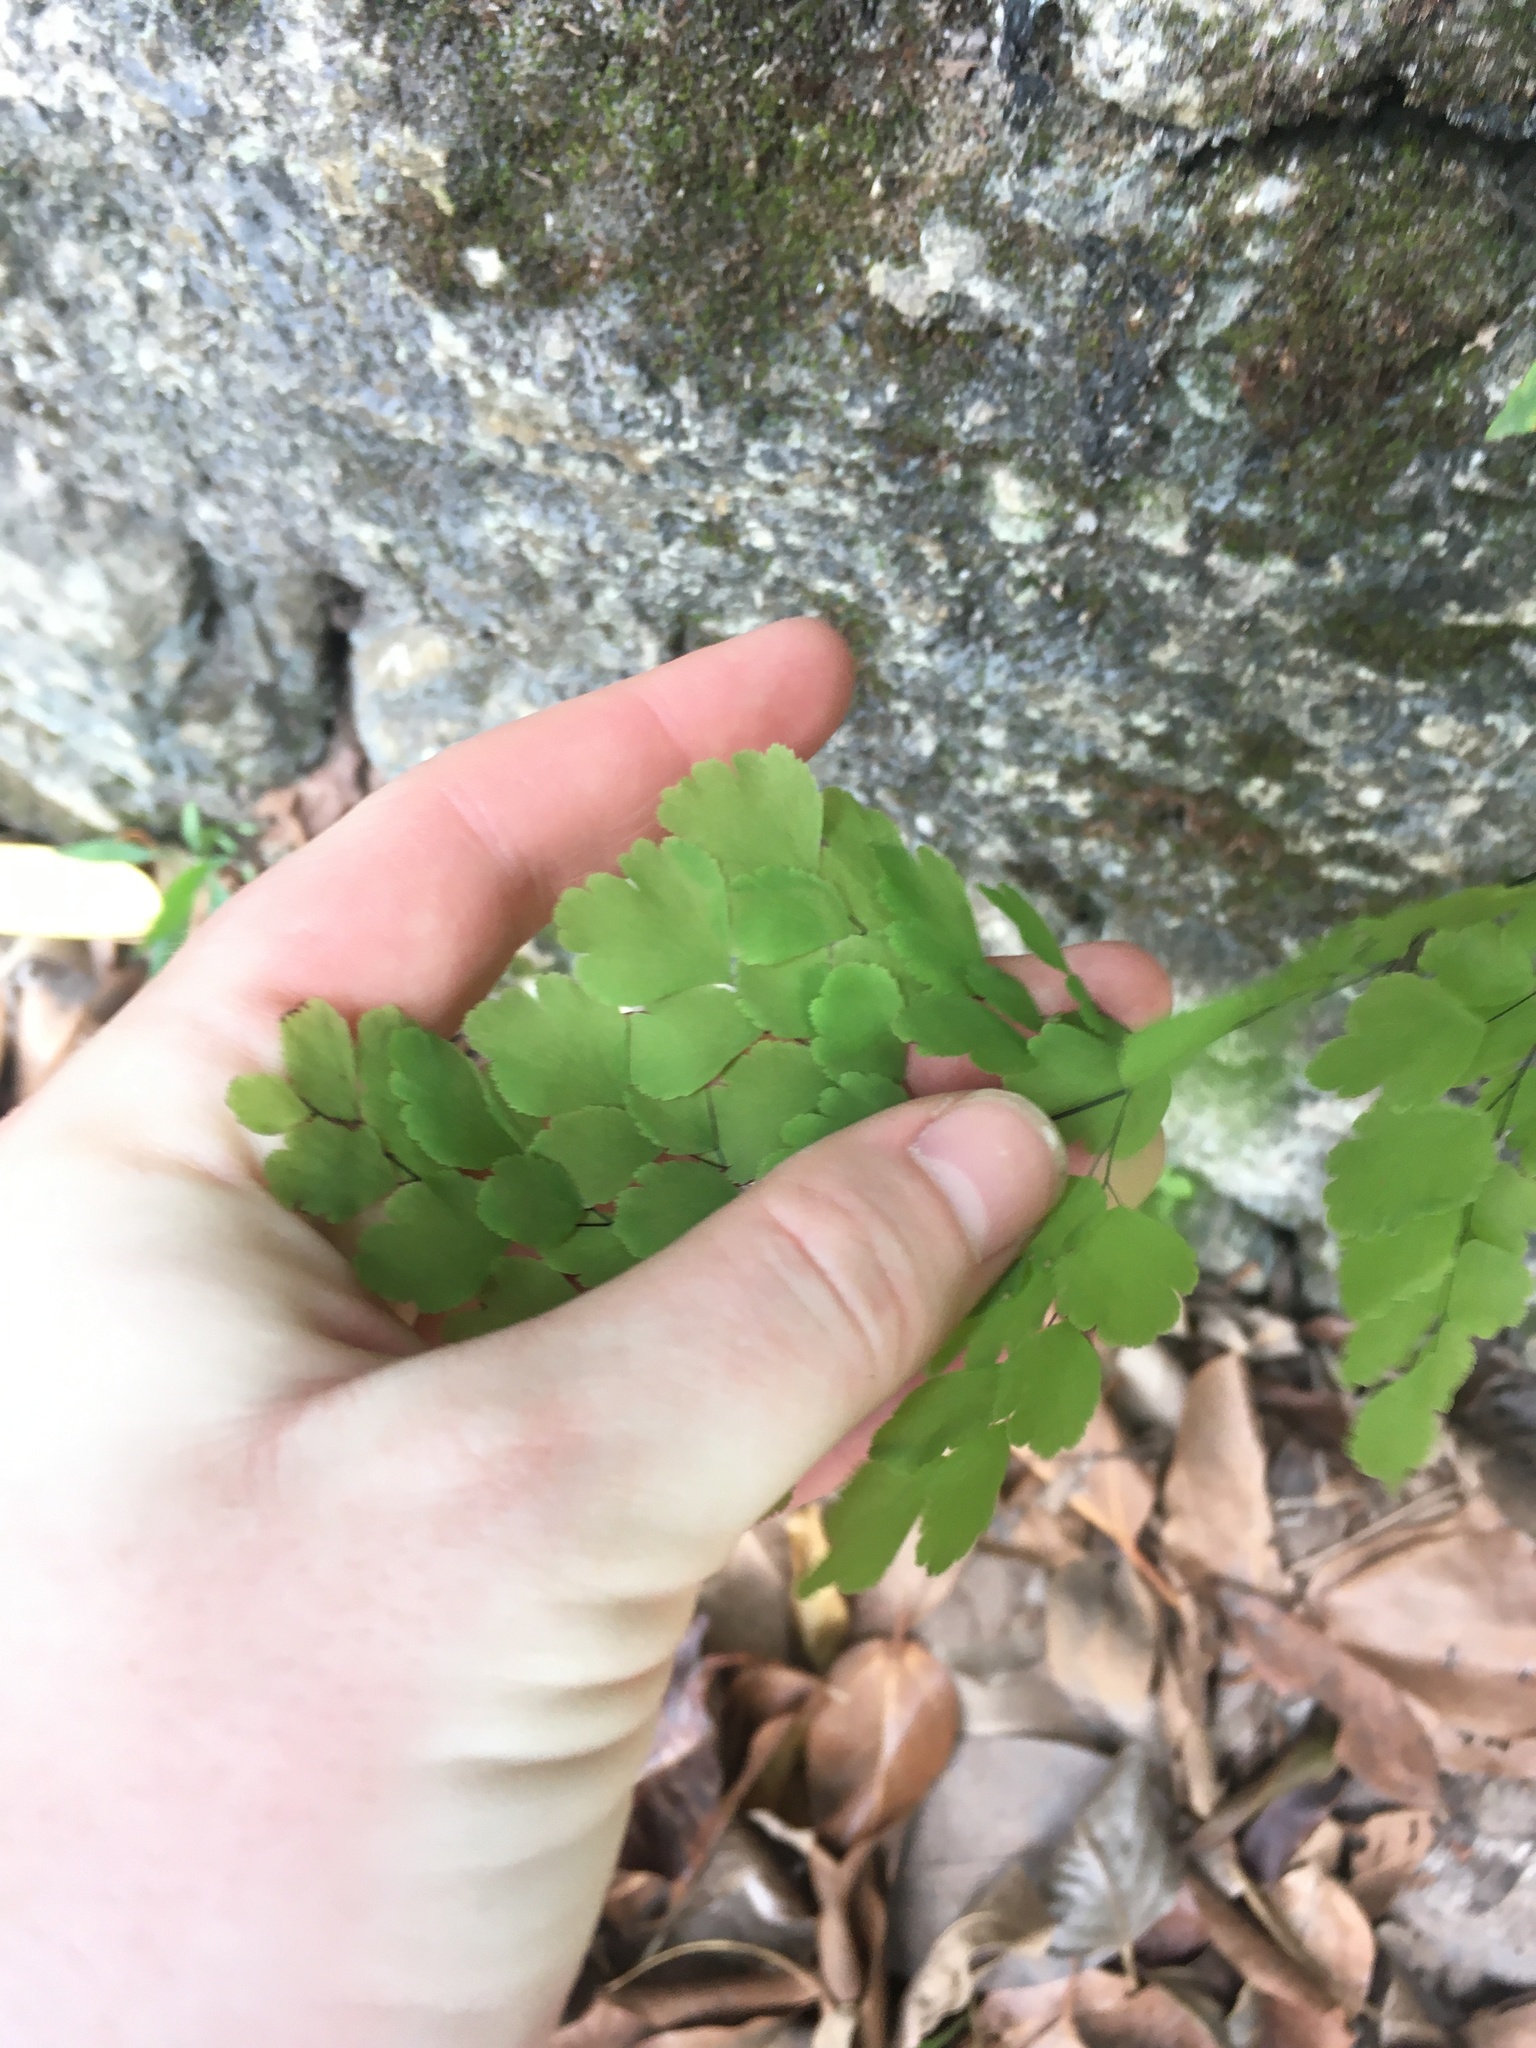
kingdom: Plantae
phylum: Tracheophyta
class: Polypodiopsida
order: Polypodiales
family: Pteridaceae
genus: Adiantum
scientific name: Adiantum tenerum
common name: Fan maidenhair
